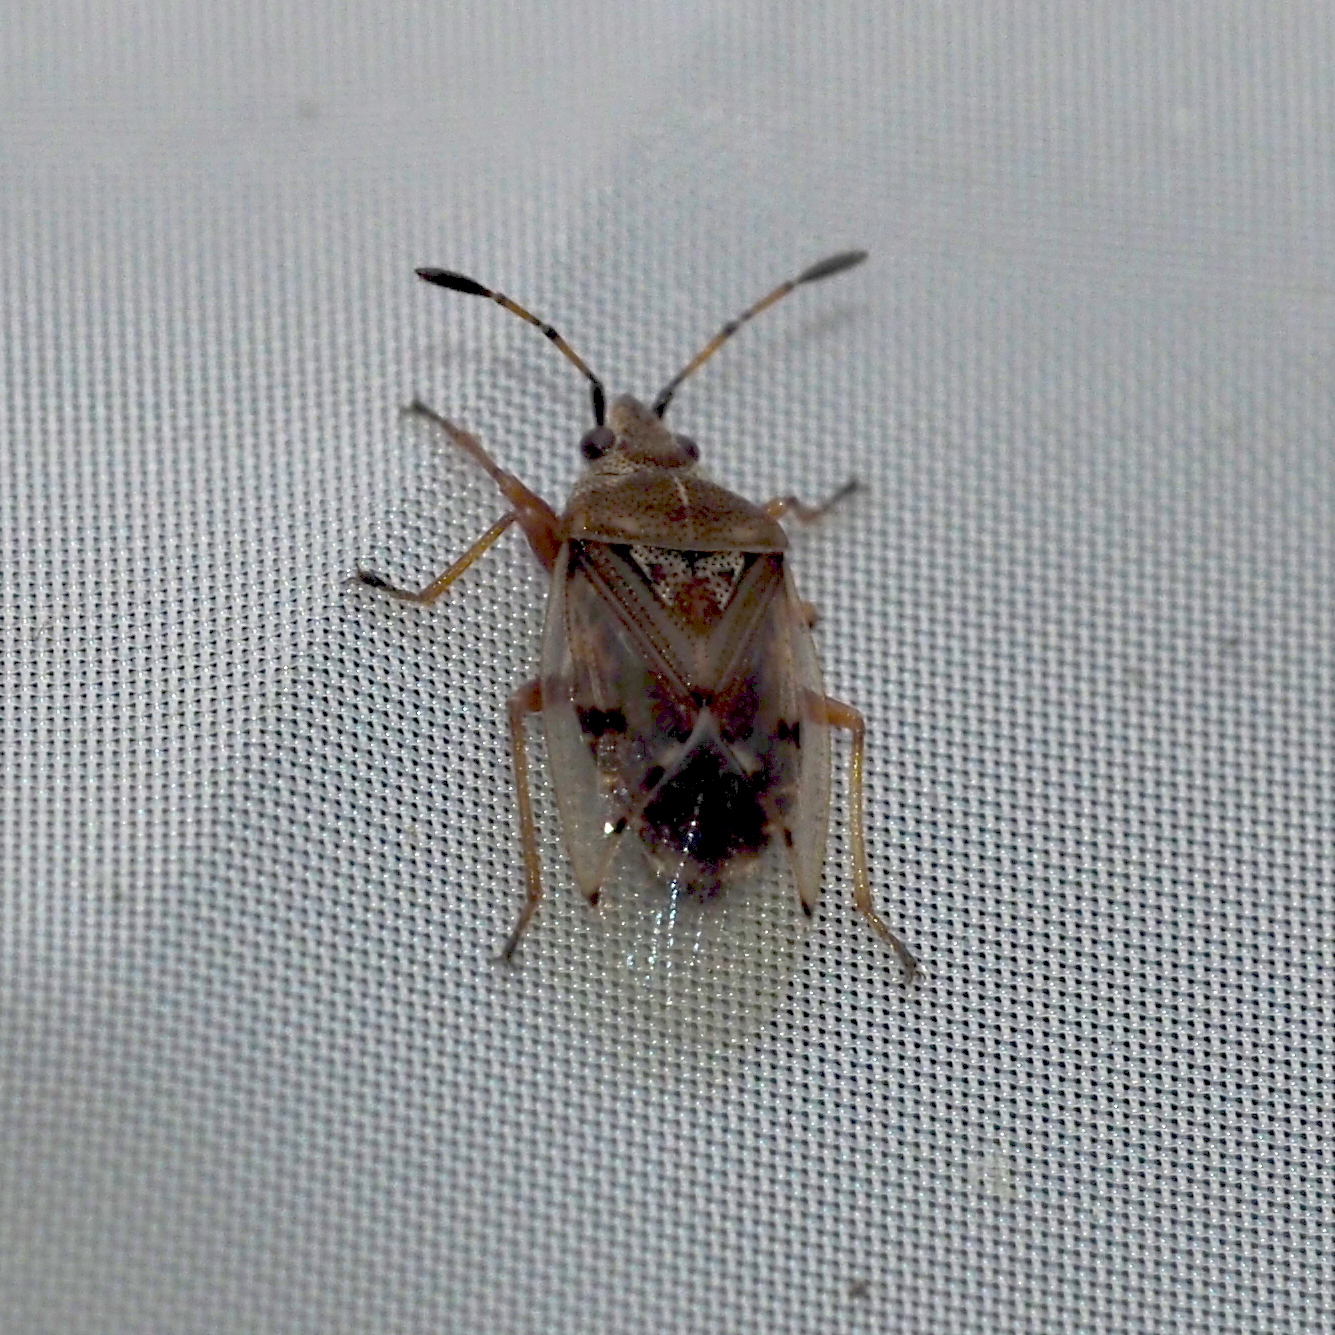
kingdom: Animalia
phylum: Arthropoda
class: Insecta
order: Hemiptera
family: Lygaeidae
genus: Kleidocerys
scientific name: Kleidocerys resedae
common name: Birch catkin bug
